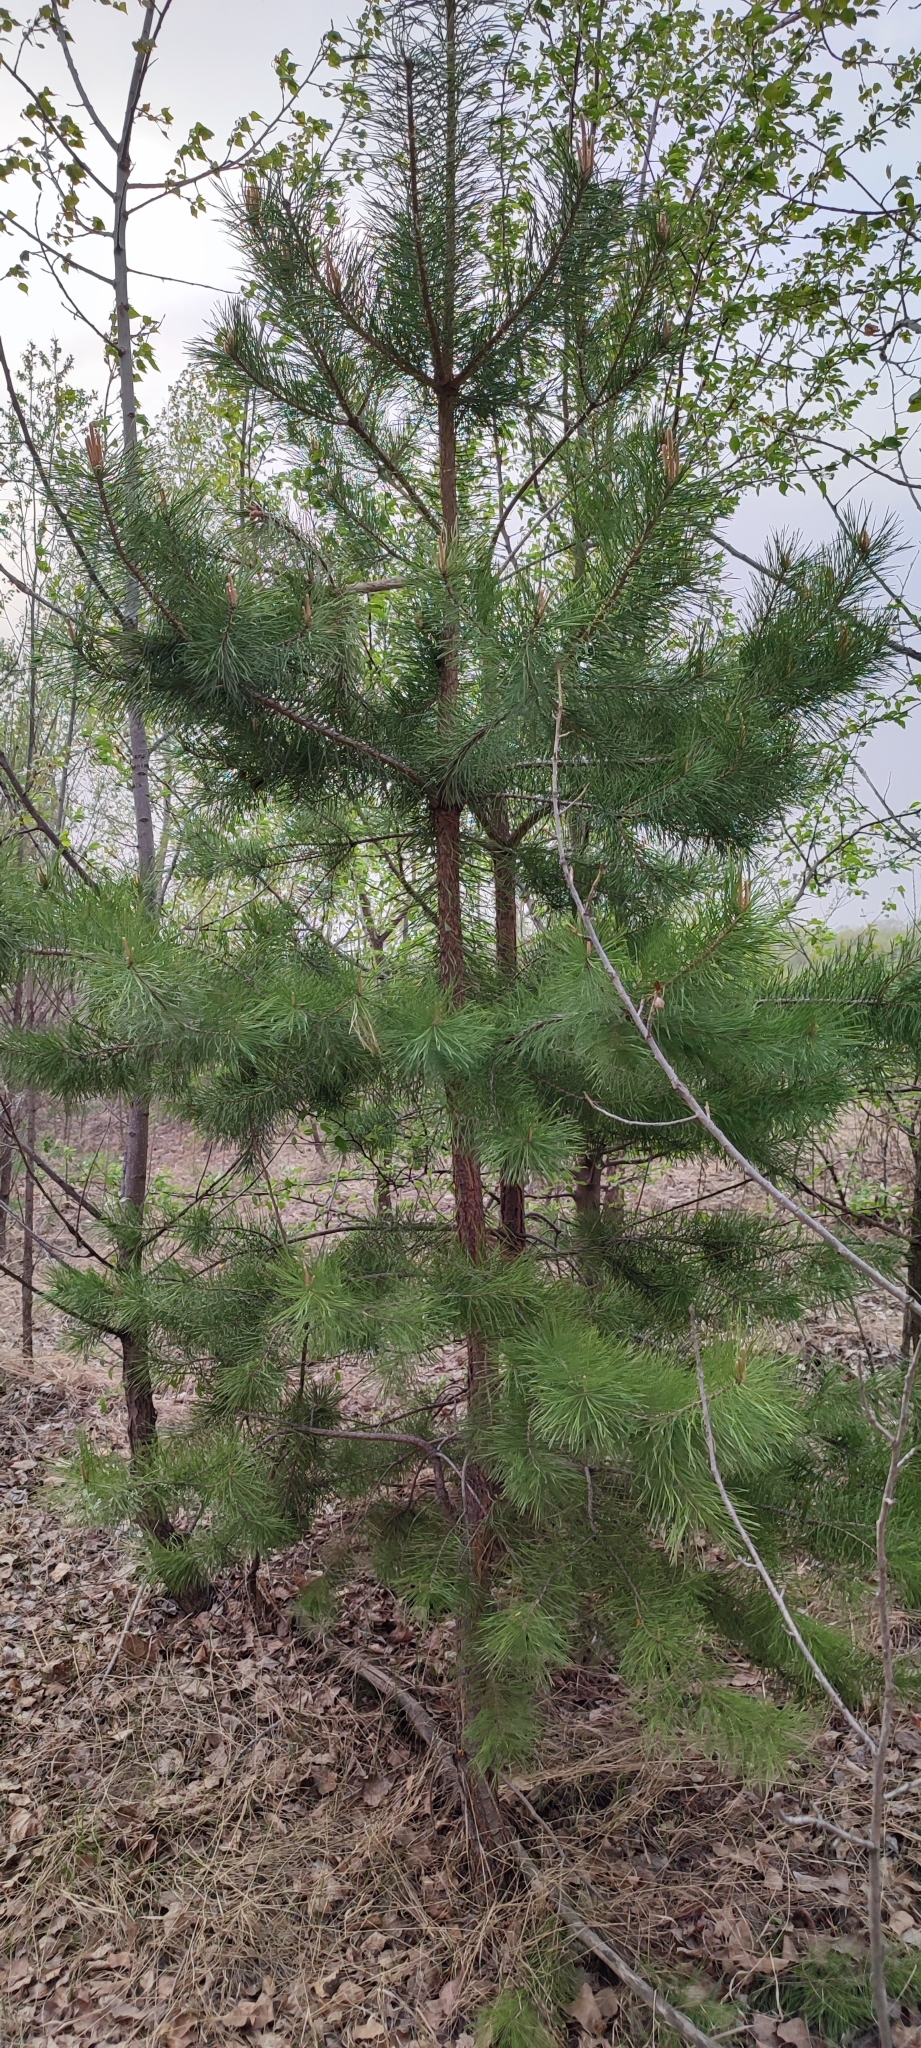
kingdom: Plantae
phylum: Tracheophyta
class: Pinopsida
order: Pinales
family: Pinaceae
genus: Pinus
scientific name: Pinus sylvestris
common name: Scots pine
